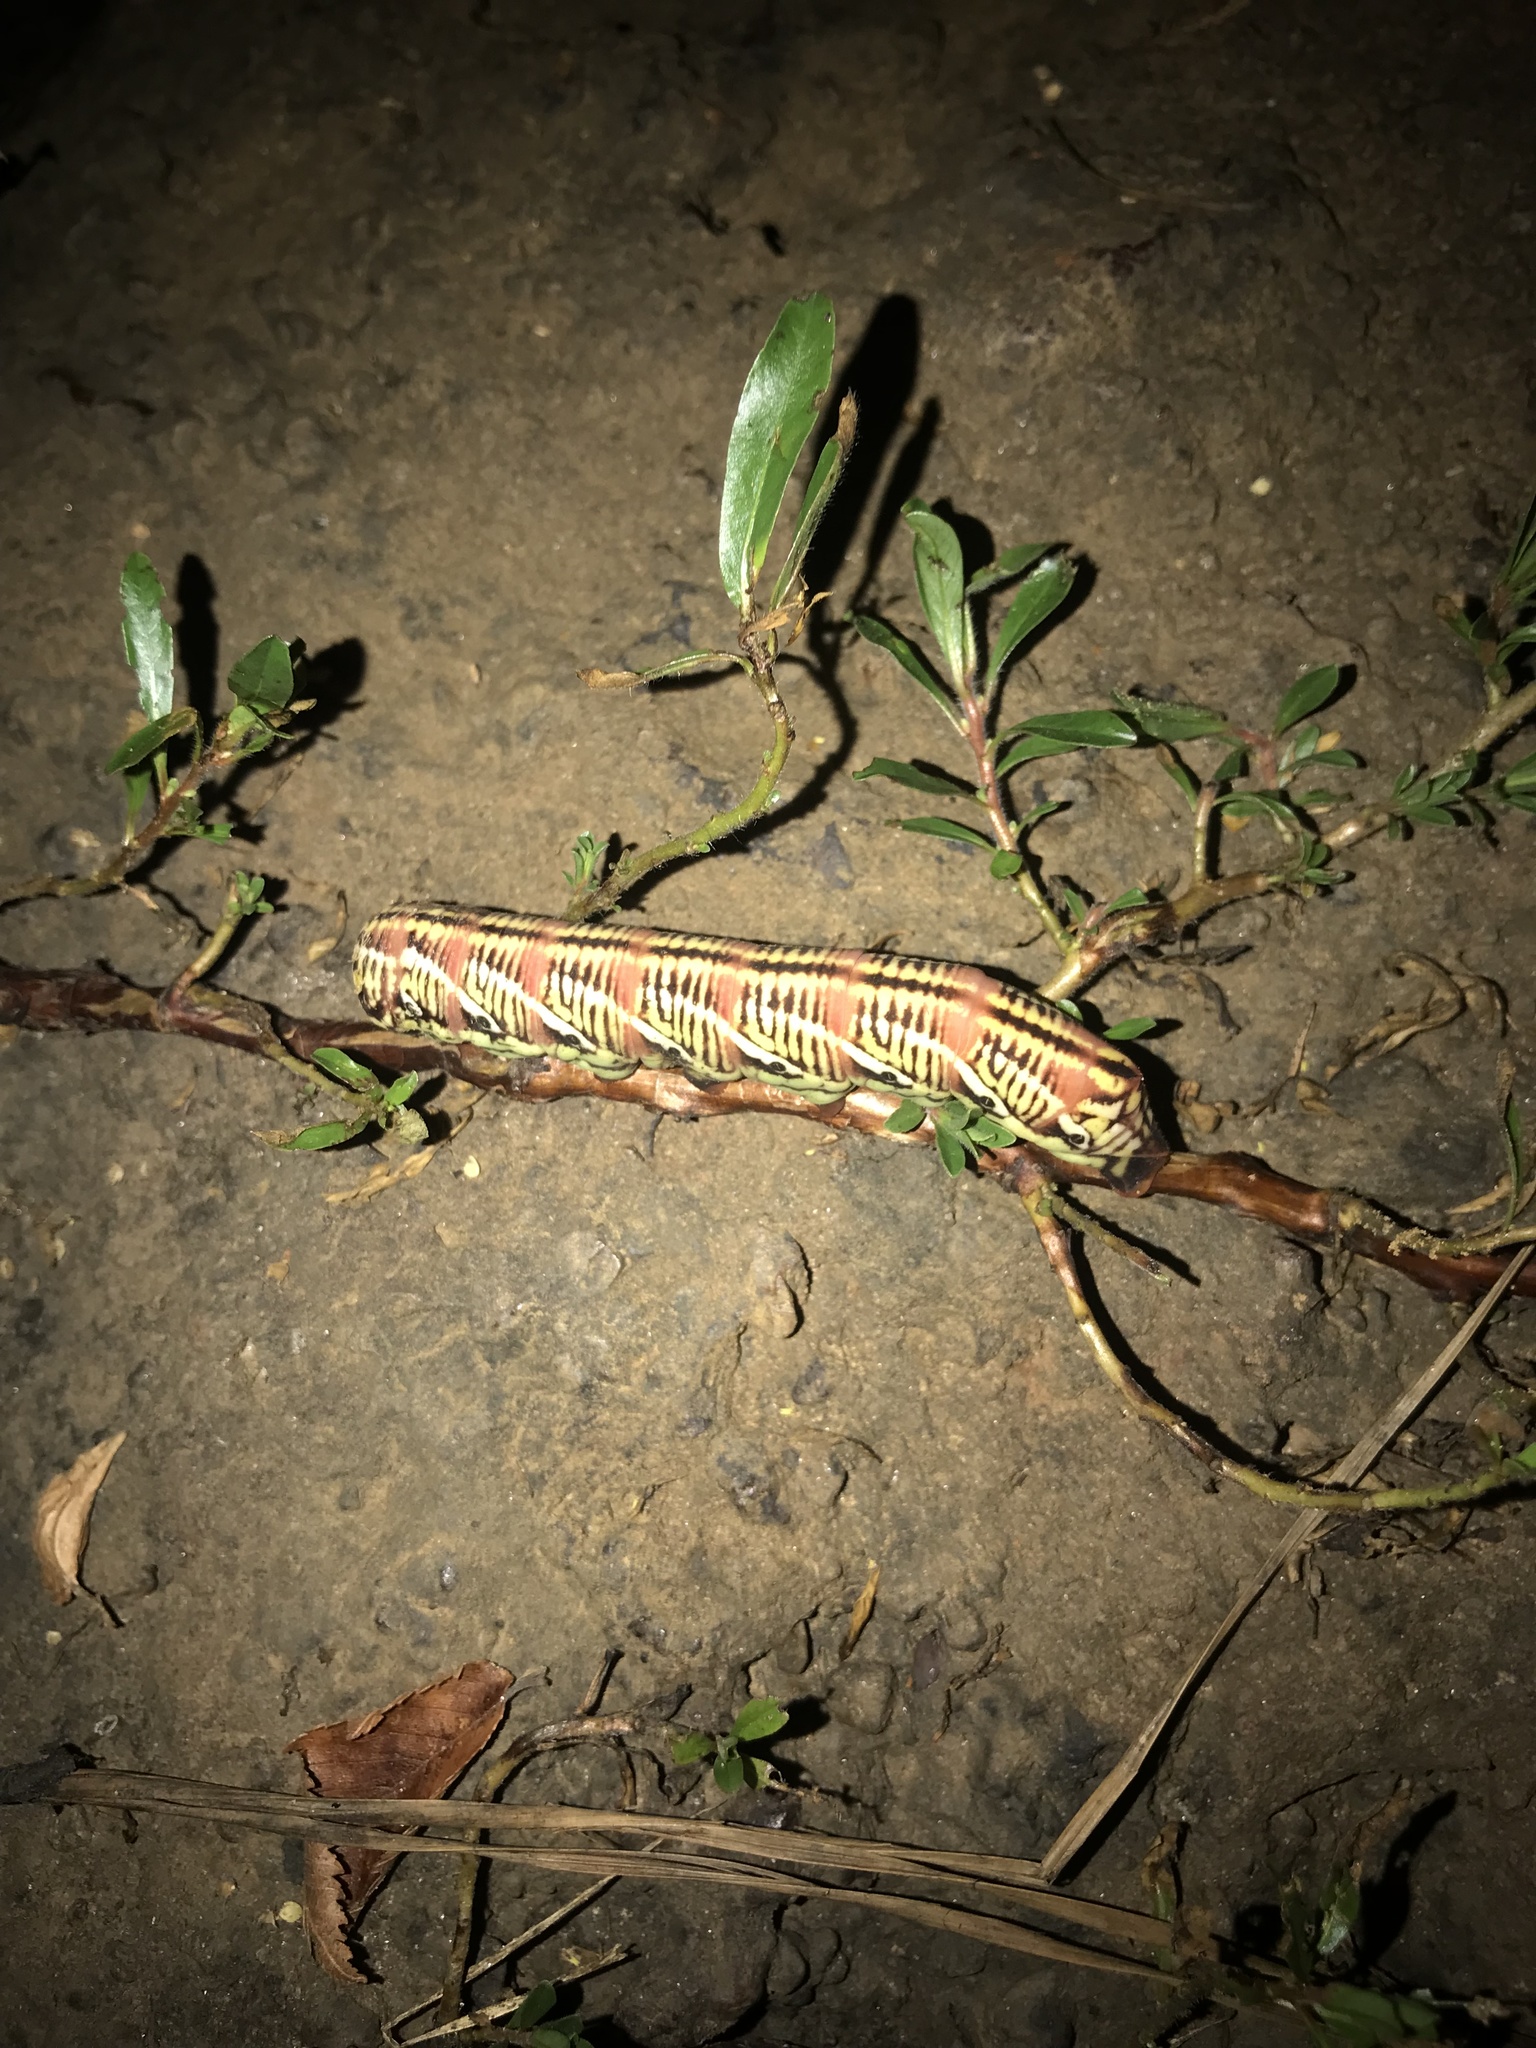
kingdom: Animalia
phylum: Arthropoda
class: Insecta
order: Lepidoptera
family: Sphingidae
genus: Eumorpha
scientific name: Eumorpha fasciatus
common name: Banded sphinx
